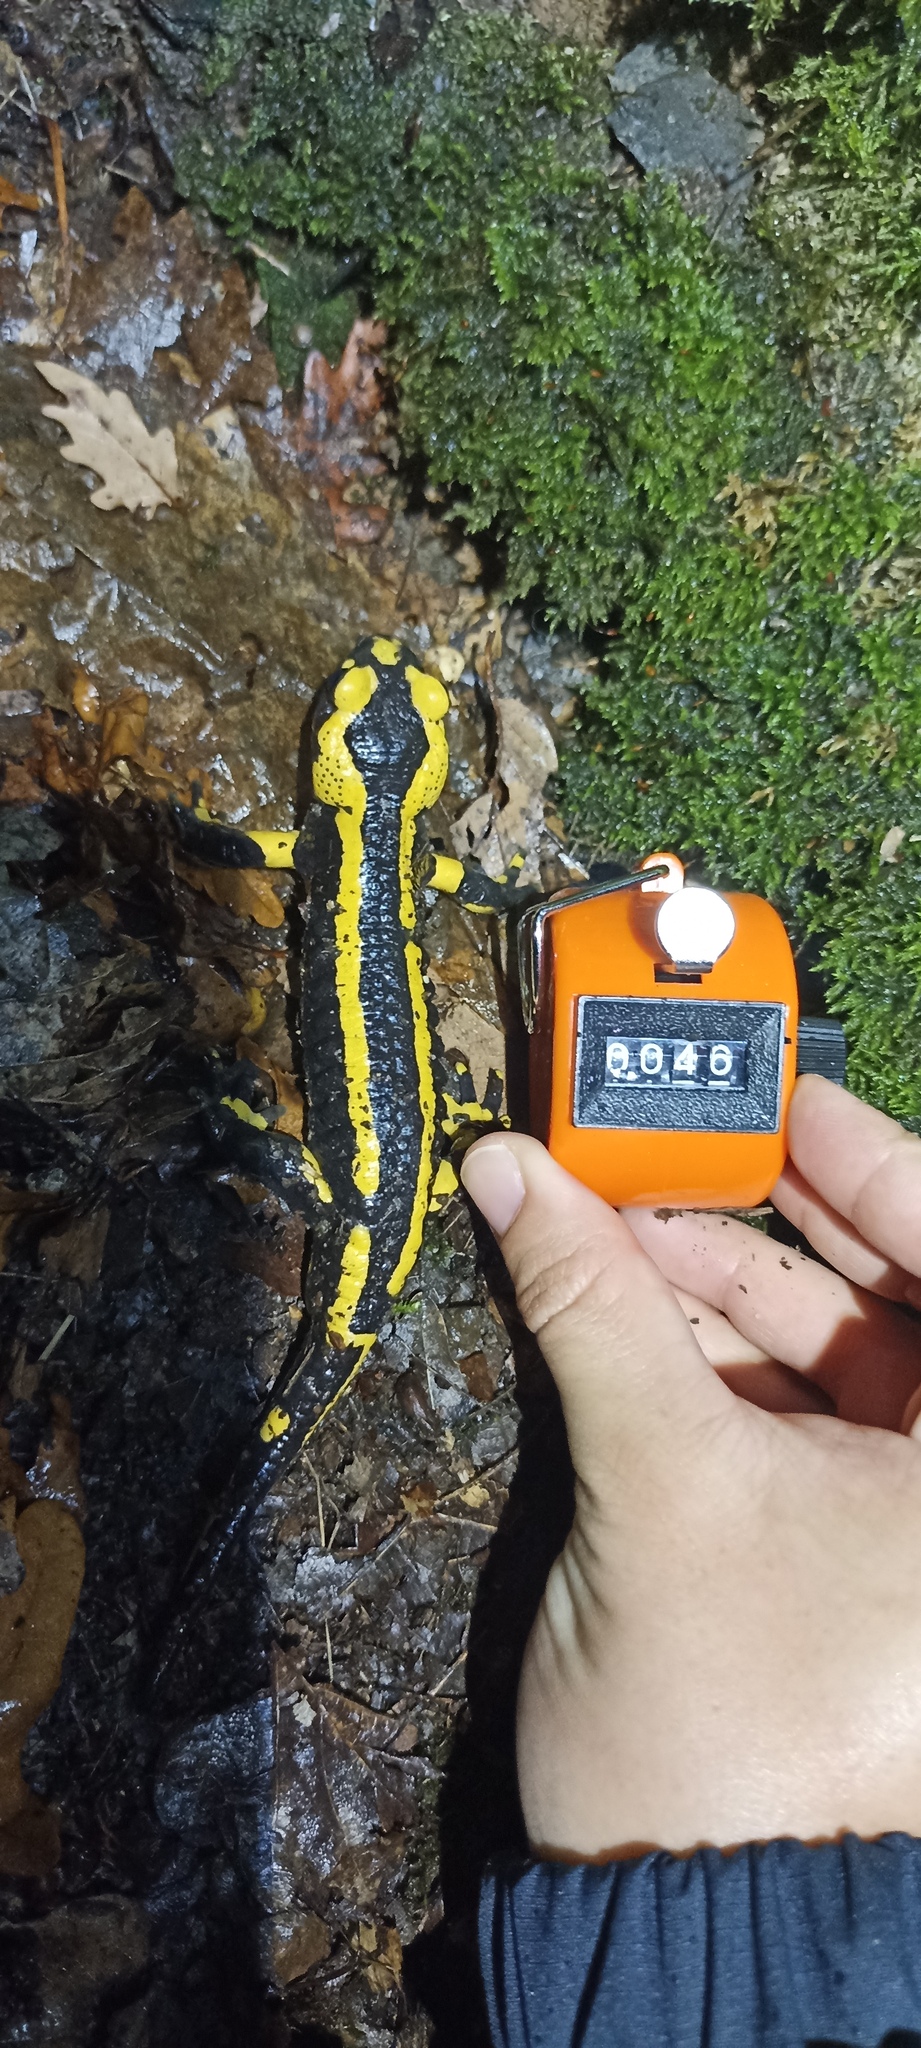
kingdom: Animalia
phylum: Chordata
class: Amphibia
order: Caudata
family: Salamandridae
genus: Salamandra
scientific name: Salamandra salamandra
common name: Fire salamander
